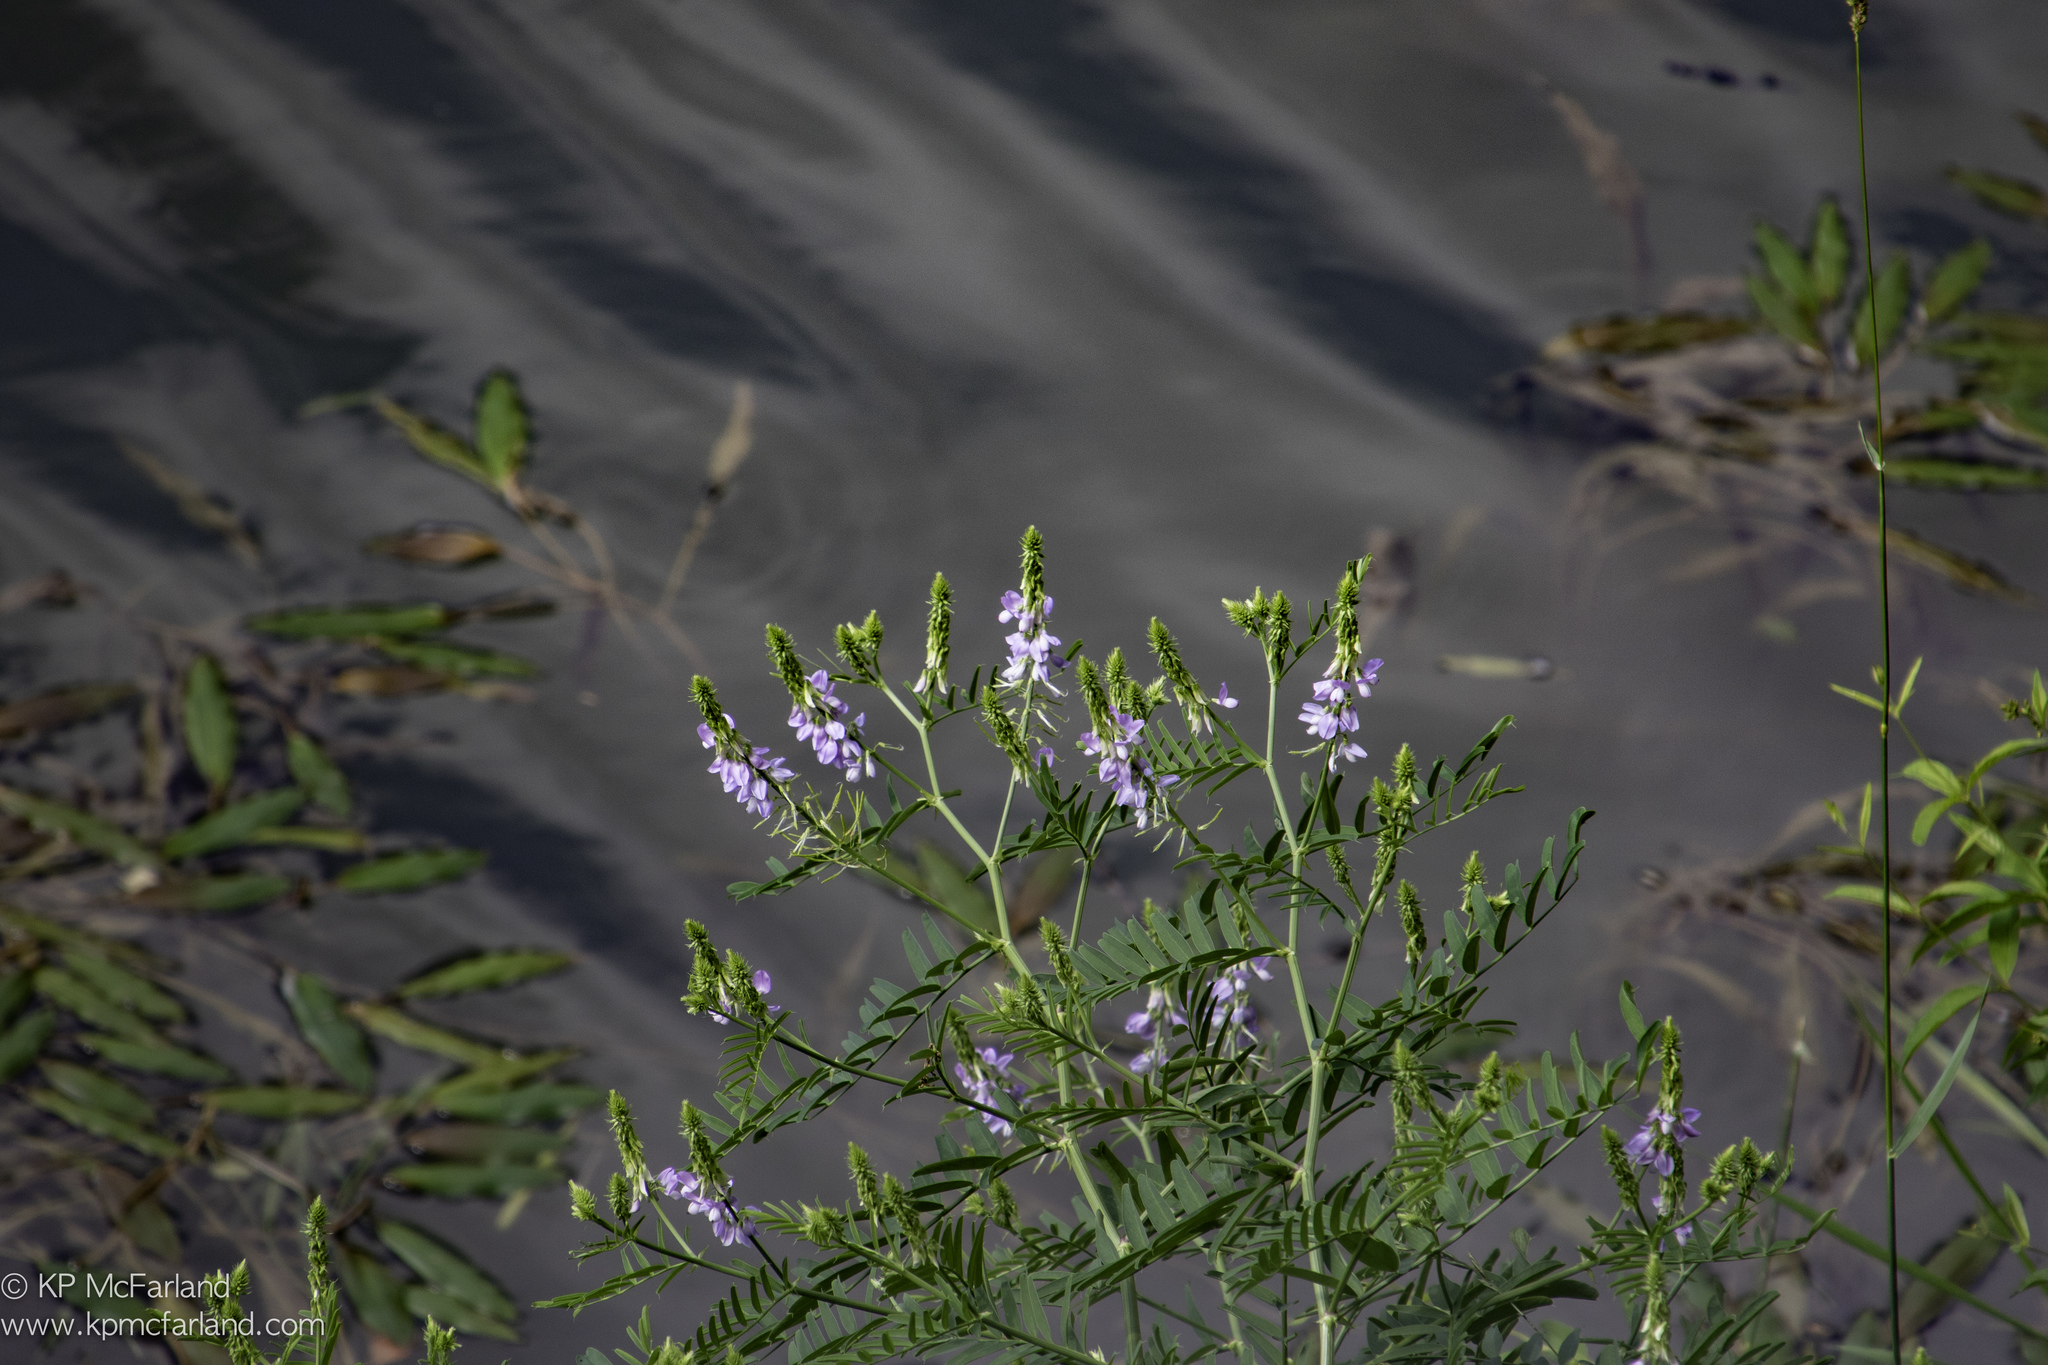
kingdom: Plantae
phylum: Tracheophyta
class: Magnoliopsida
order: Fabales
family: Fabaceae
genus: Galega
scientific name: Galega officinalis
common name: Goat's-rue
